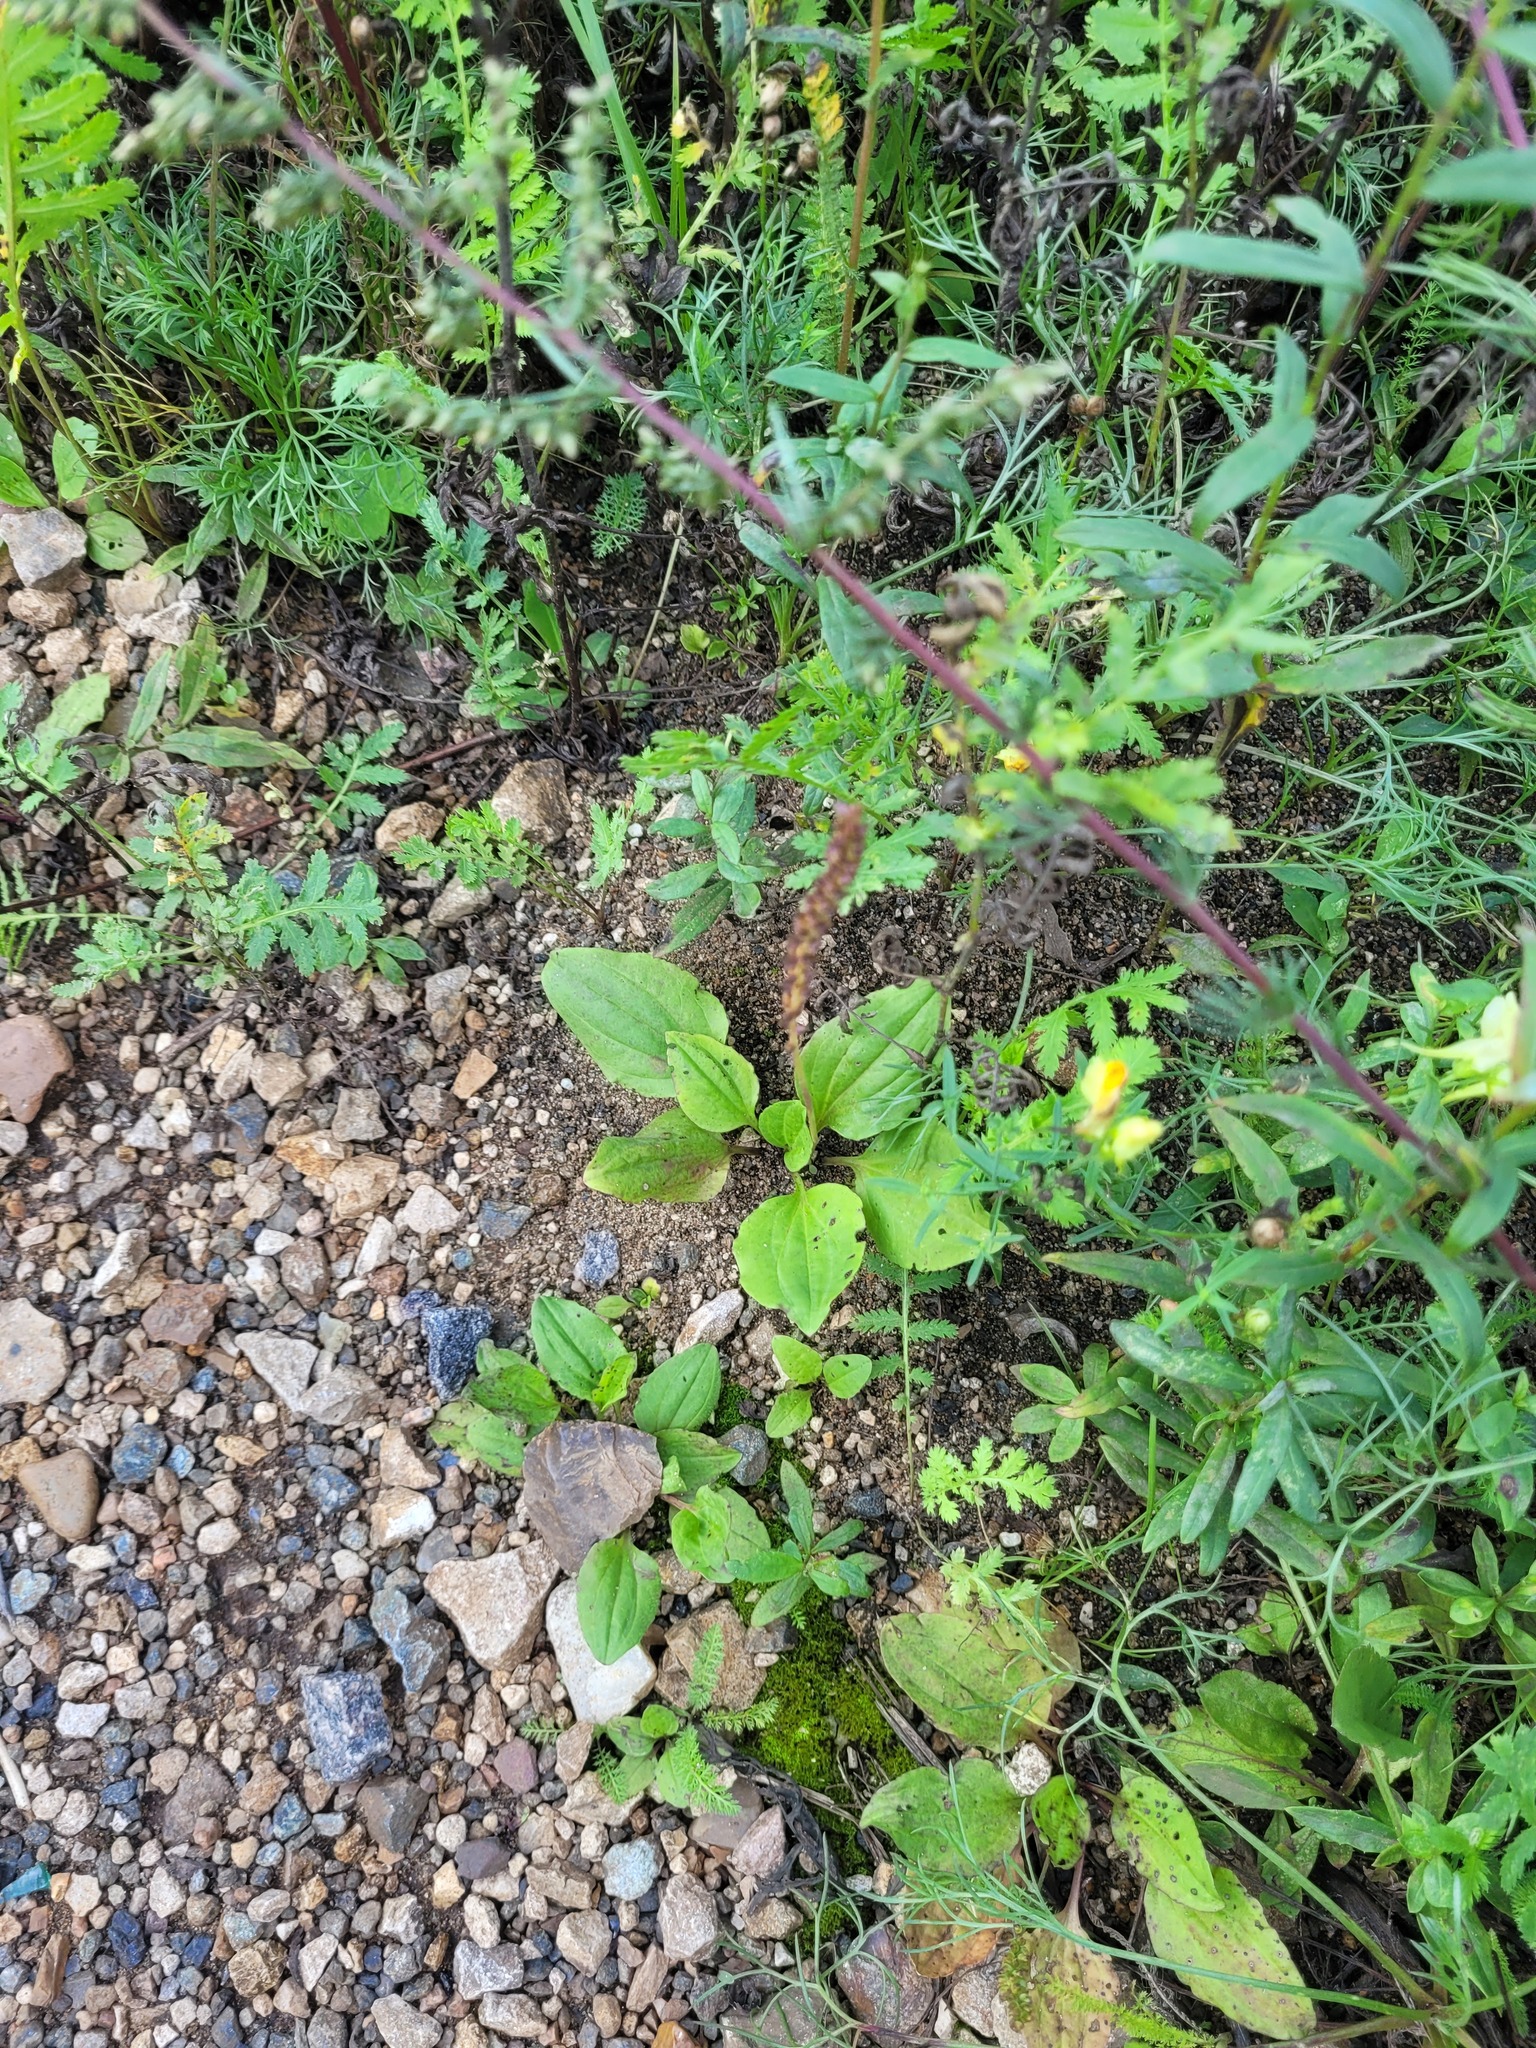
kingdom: Plantae
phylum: Tracheophyta
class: Magnoliopsida
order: Lamiales
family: Plantaginaceae
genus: Plantago
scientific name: Plantago major
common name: Common plantain
